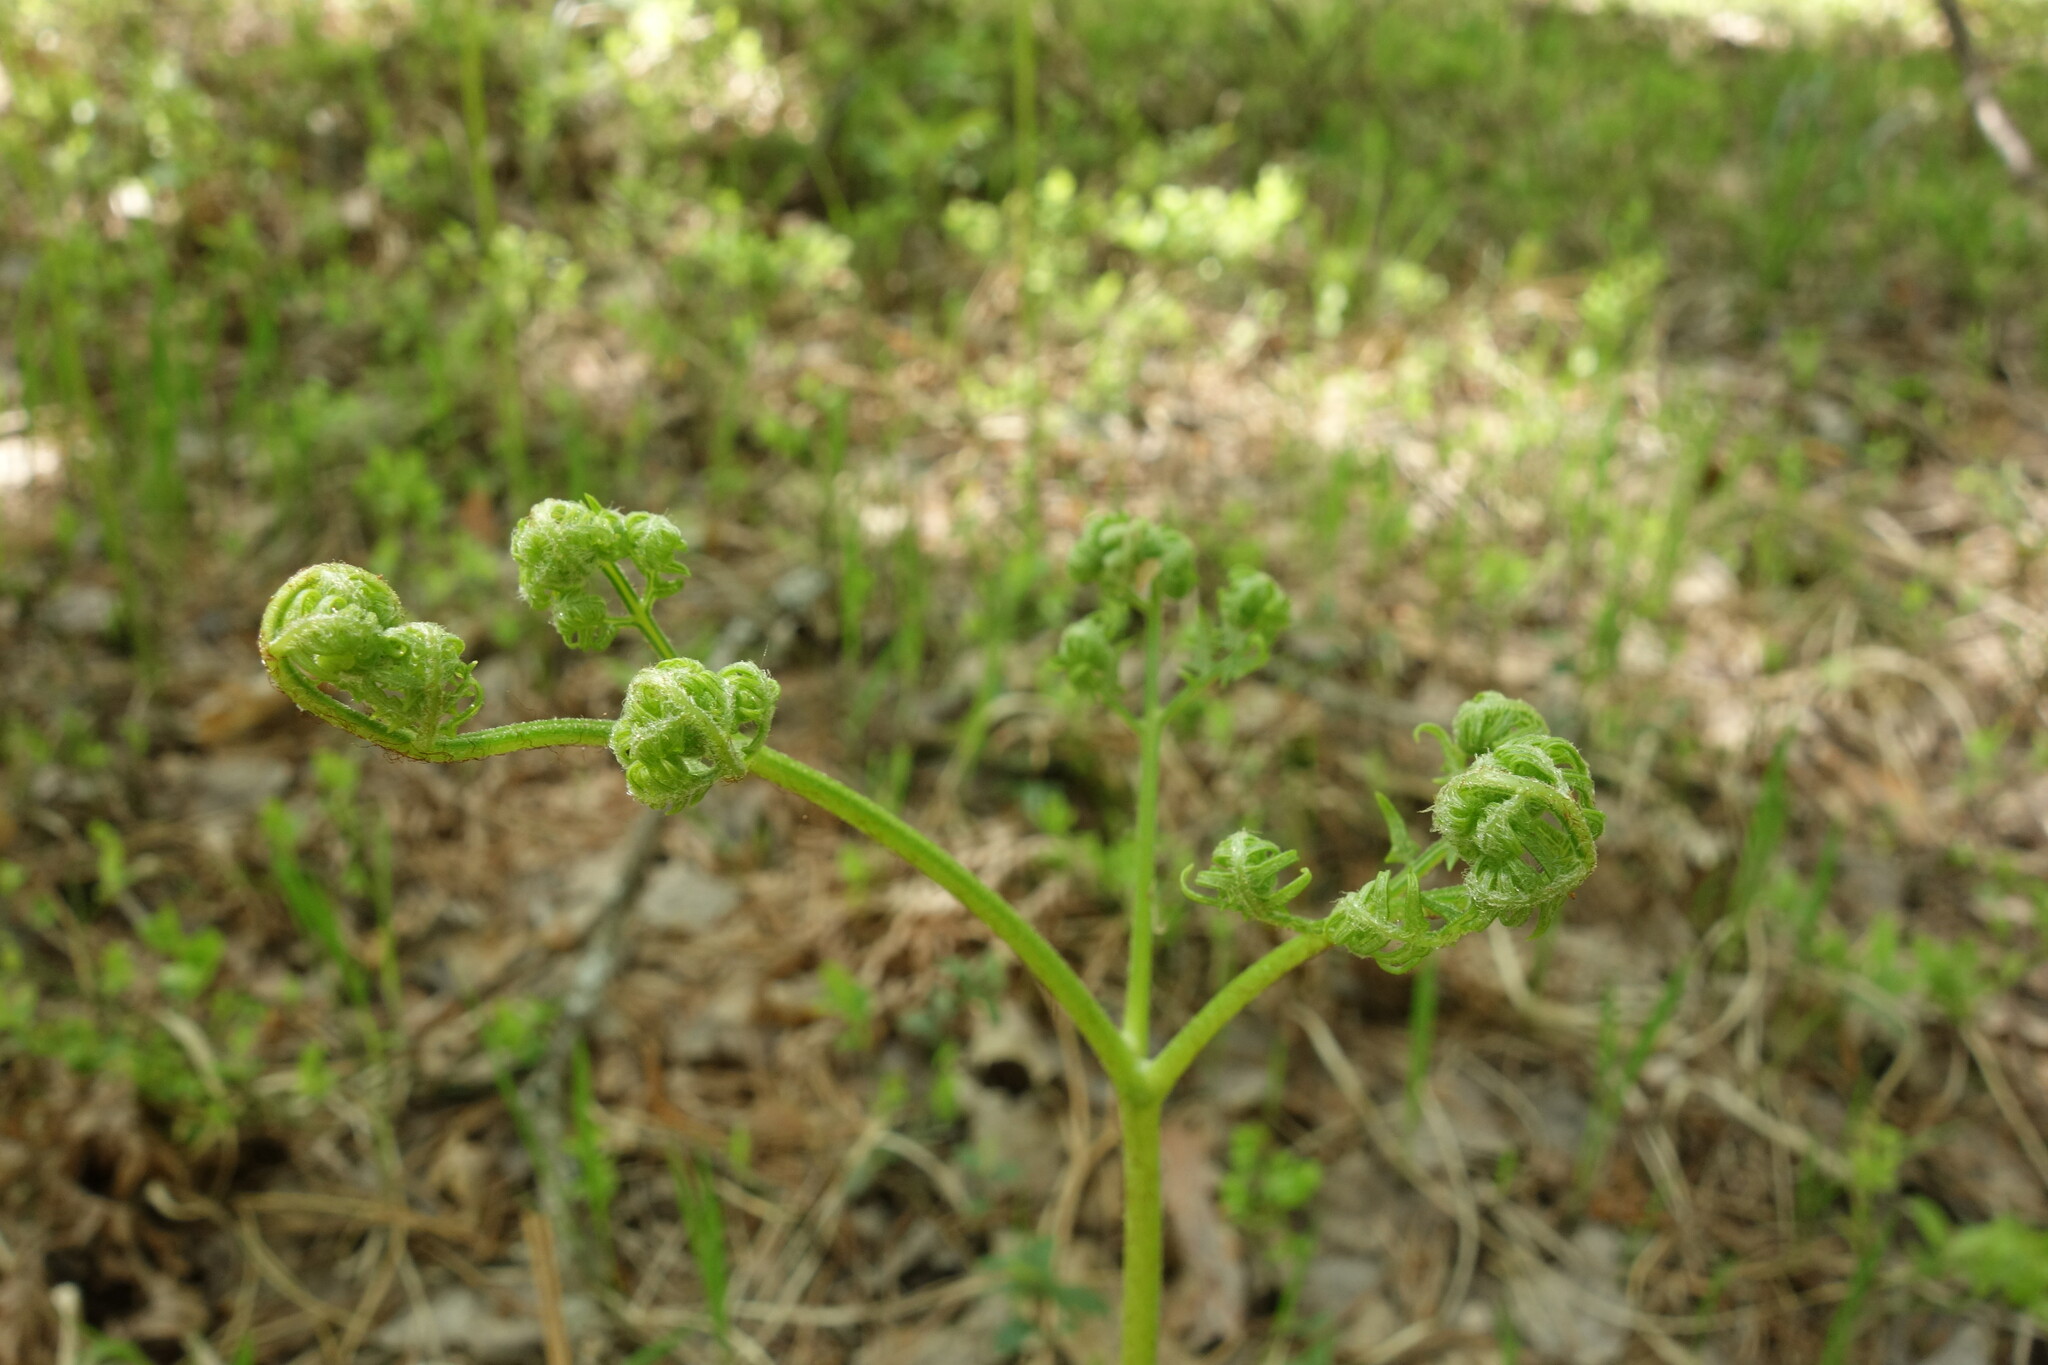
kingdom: Plantae
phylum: Tracheophyta
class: Polypodiopsida
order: Polypodiales
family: Dennstaedtiaceae
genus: Pteridium
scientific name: Pteridium aquilinum
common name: Bracken
